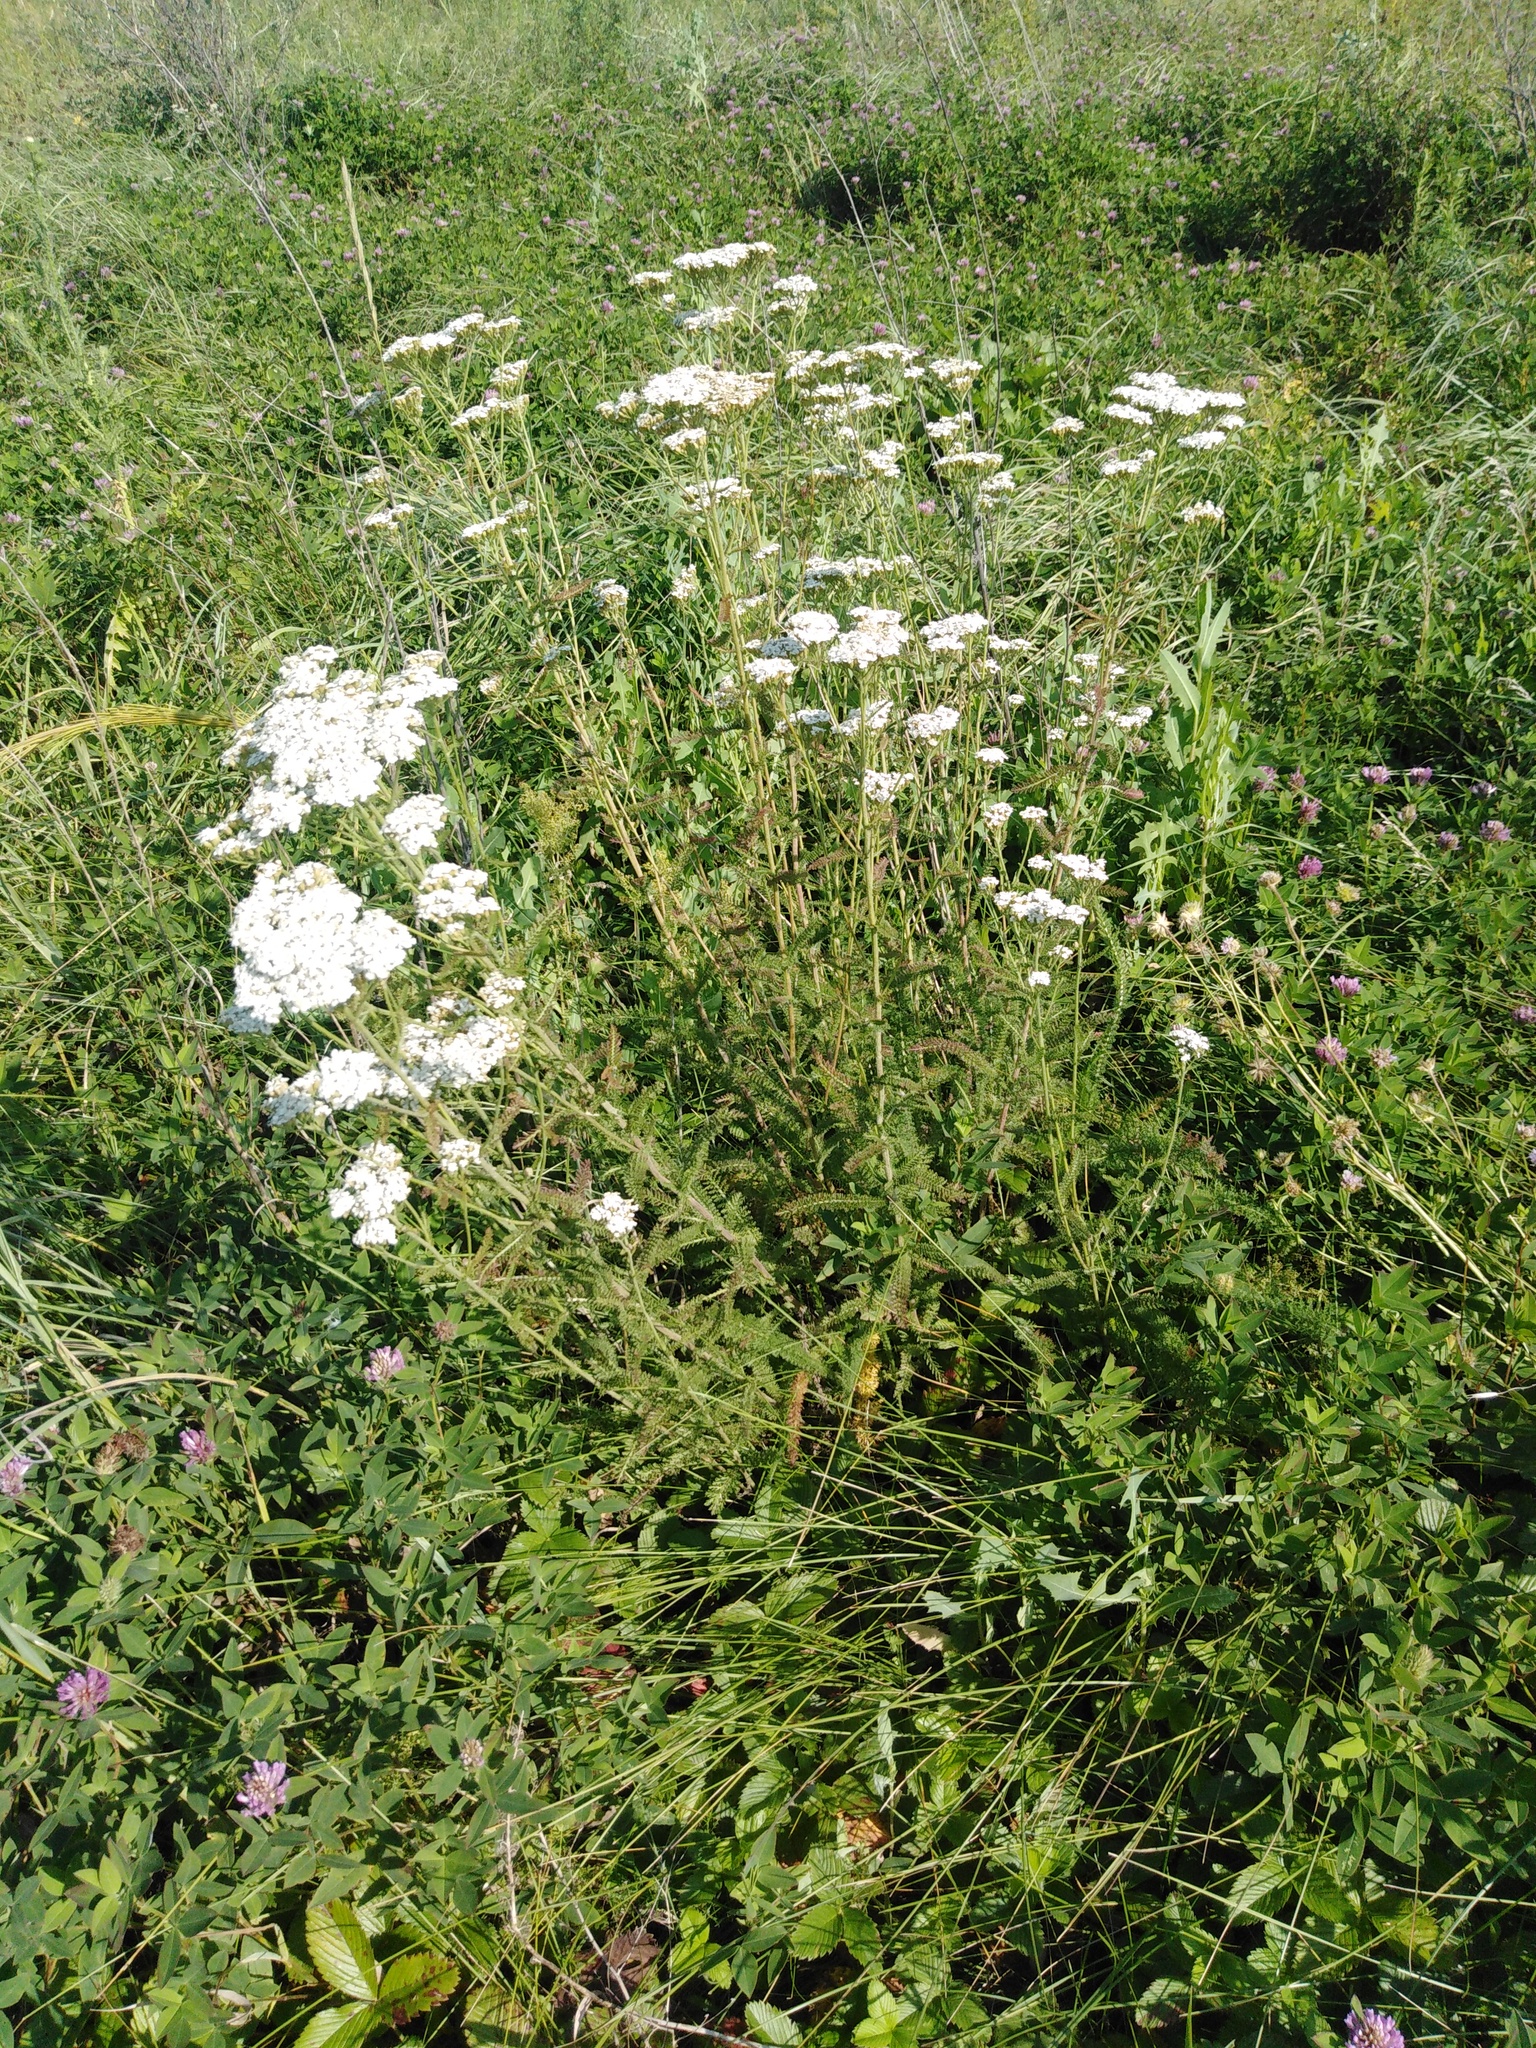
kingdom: Plantae
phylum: Tracheophyta
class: Magnoliopsida
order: Asterales
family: Asteraceae
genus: Achillea
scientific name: Achillea millefolium
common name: Yarrow
